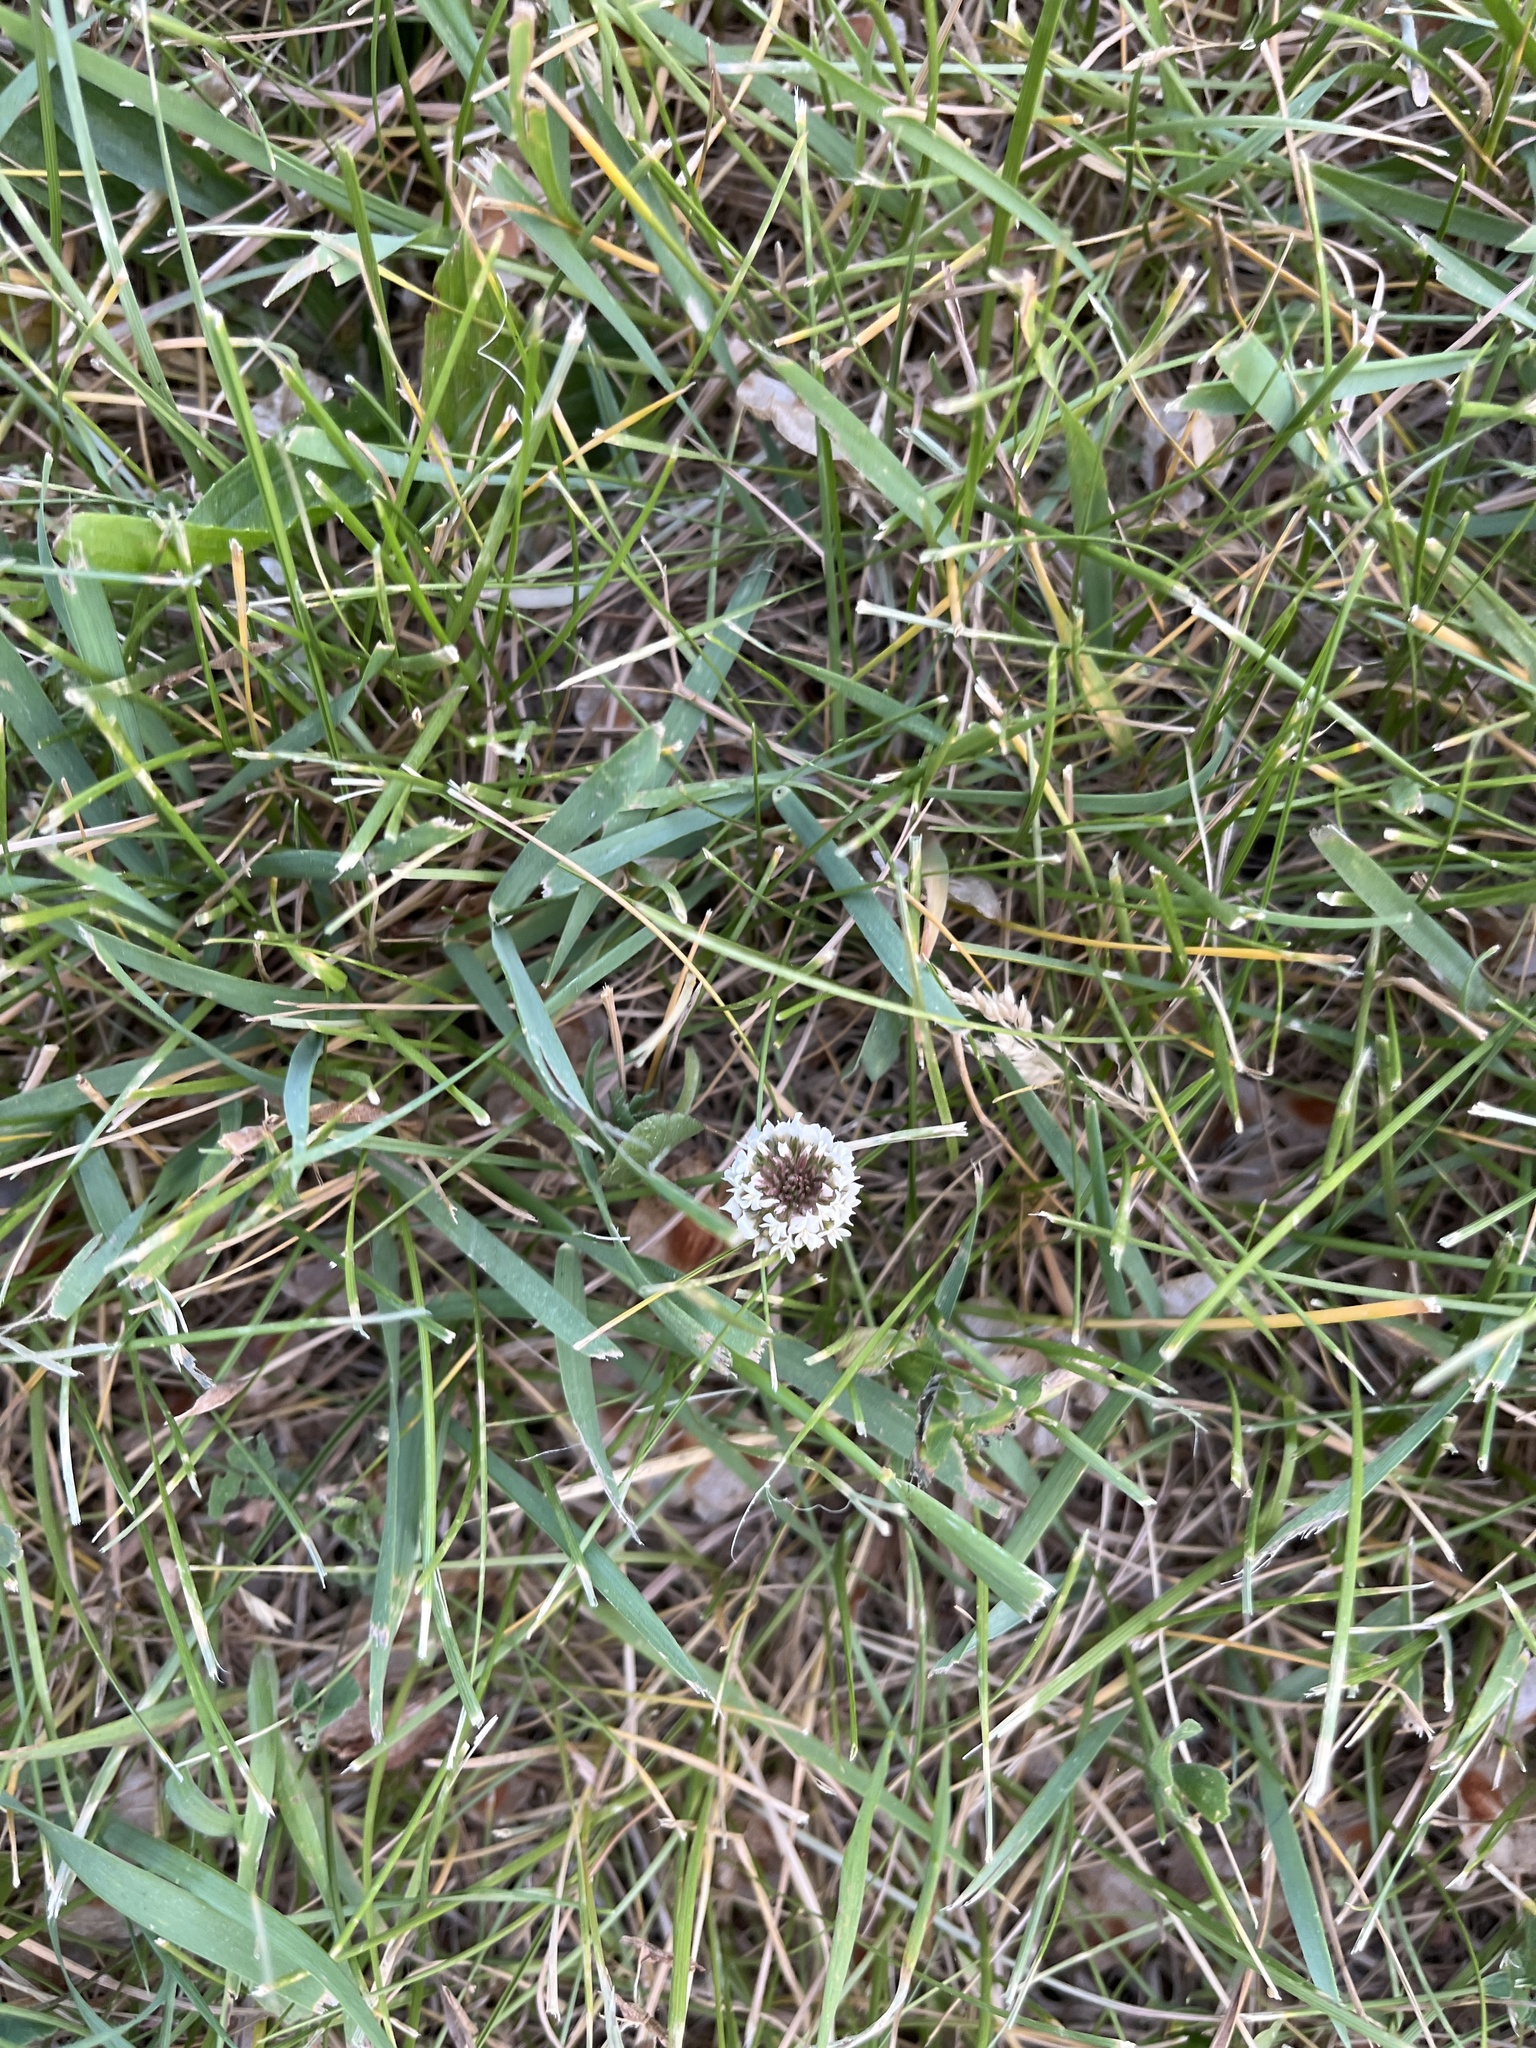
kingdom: Plantae
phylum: Tracheophyta
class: Magnoliopsida
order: Fabales
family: Fabaceae
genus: Trifolium
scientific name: Trifolium repens
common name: White clover
